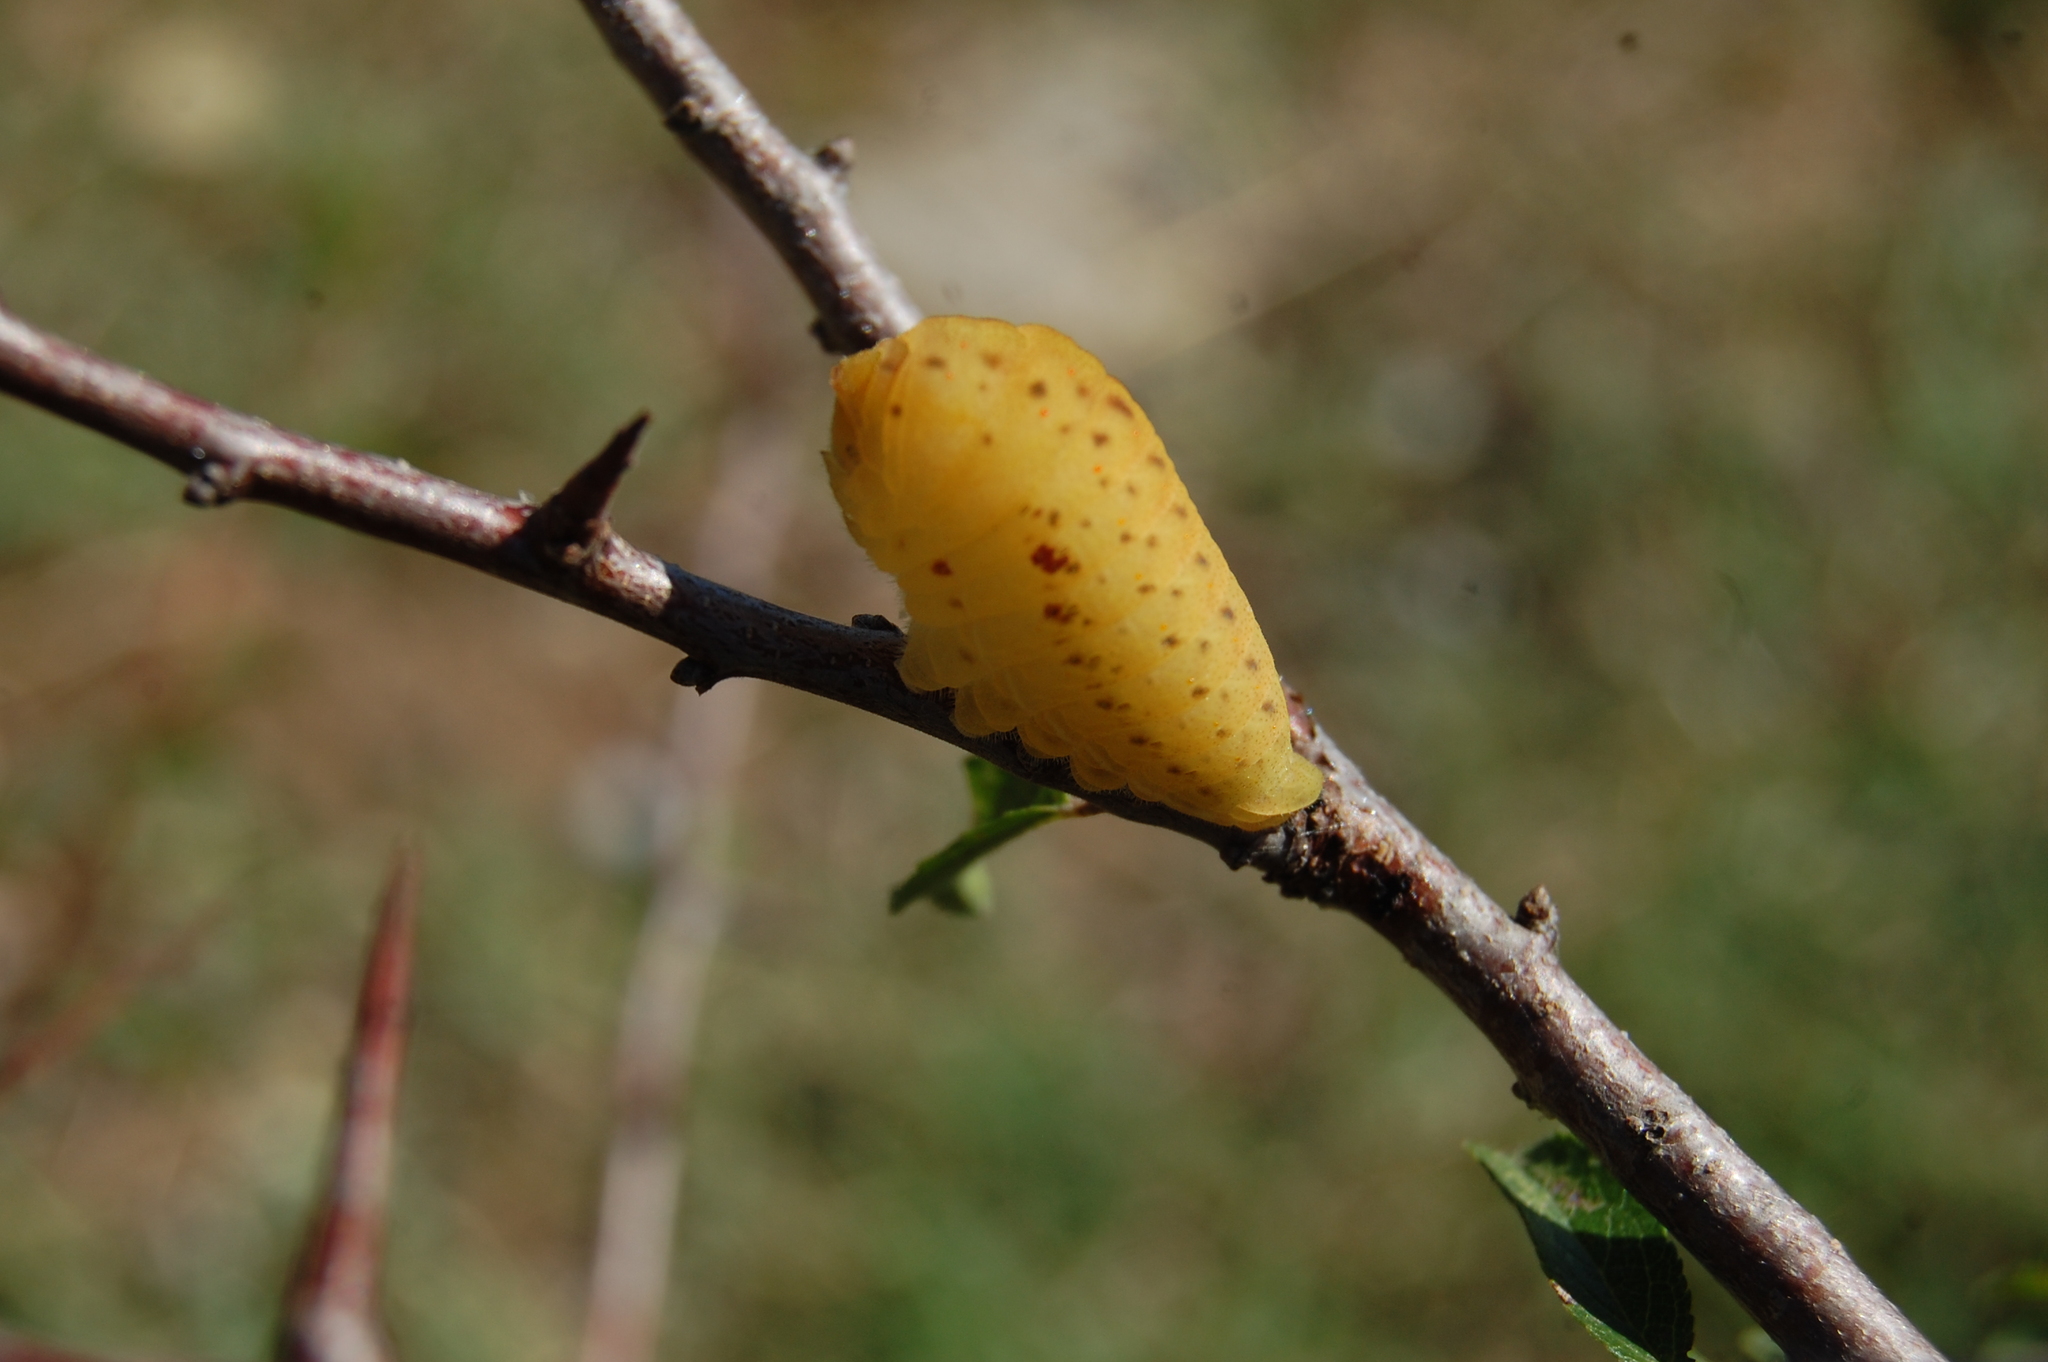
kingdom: Animalia
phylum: Arthropoda
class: Insecta
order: Lepidoptera
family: Papilionidae
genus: Iphiclides
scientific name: Iphiclides podalirius
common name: Scarce swallowtail
